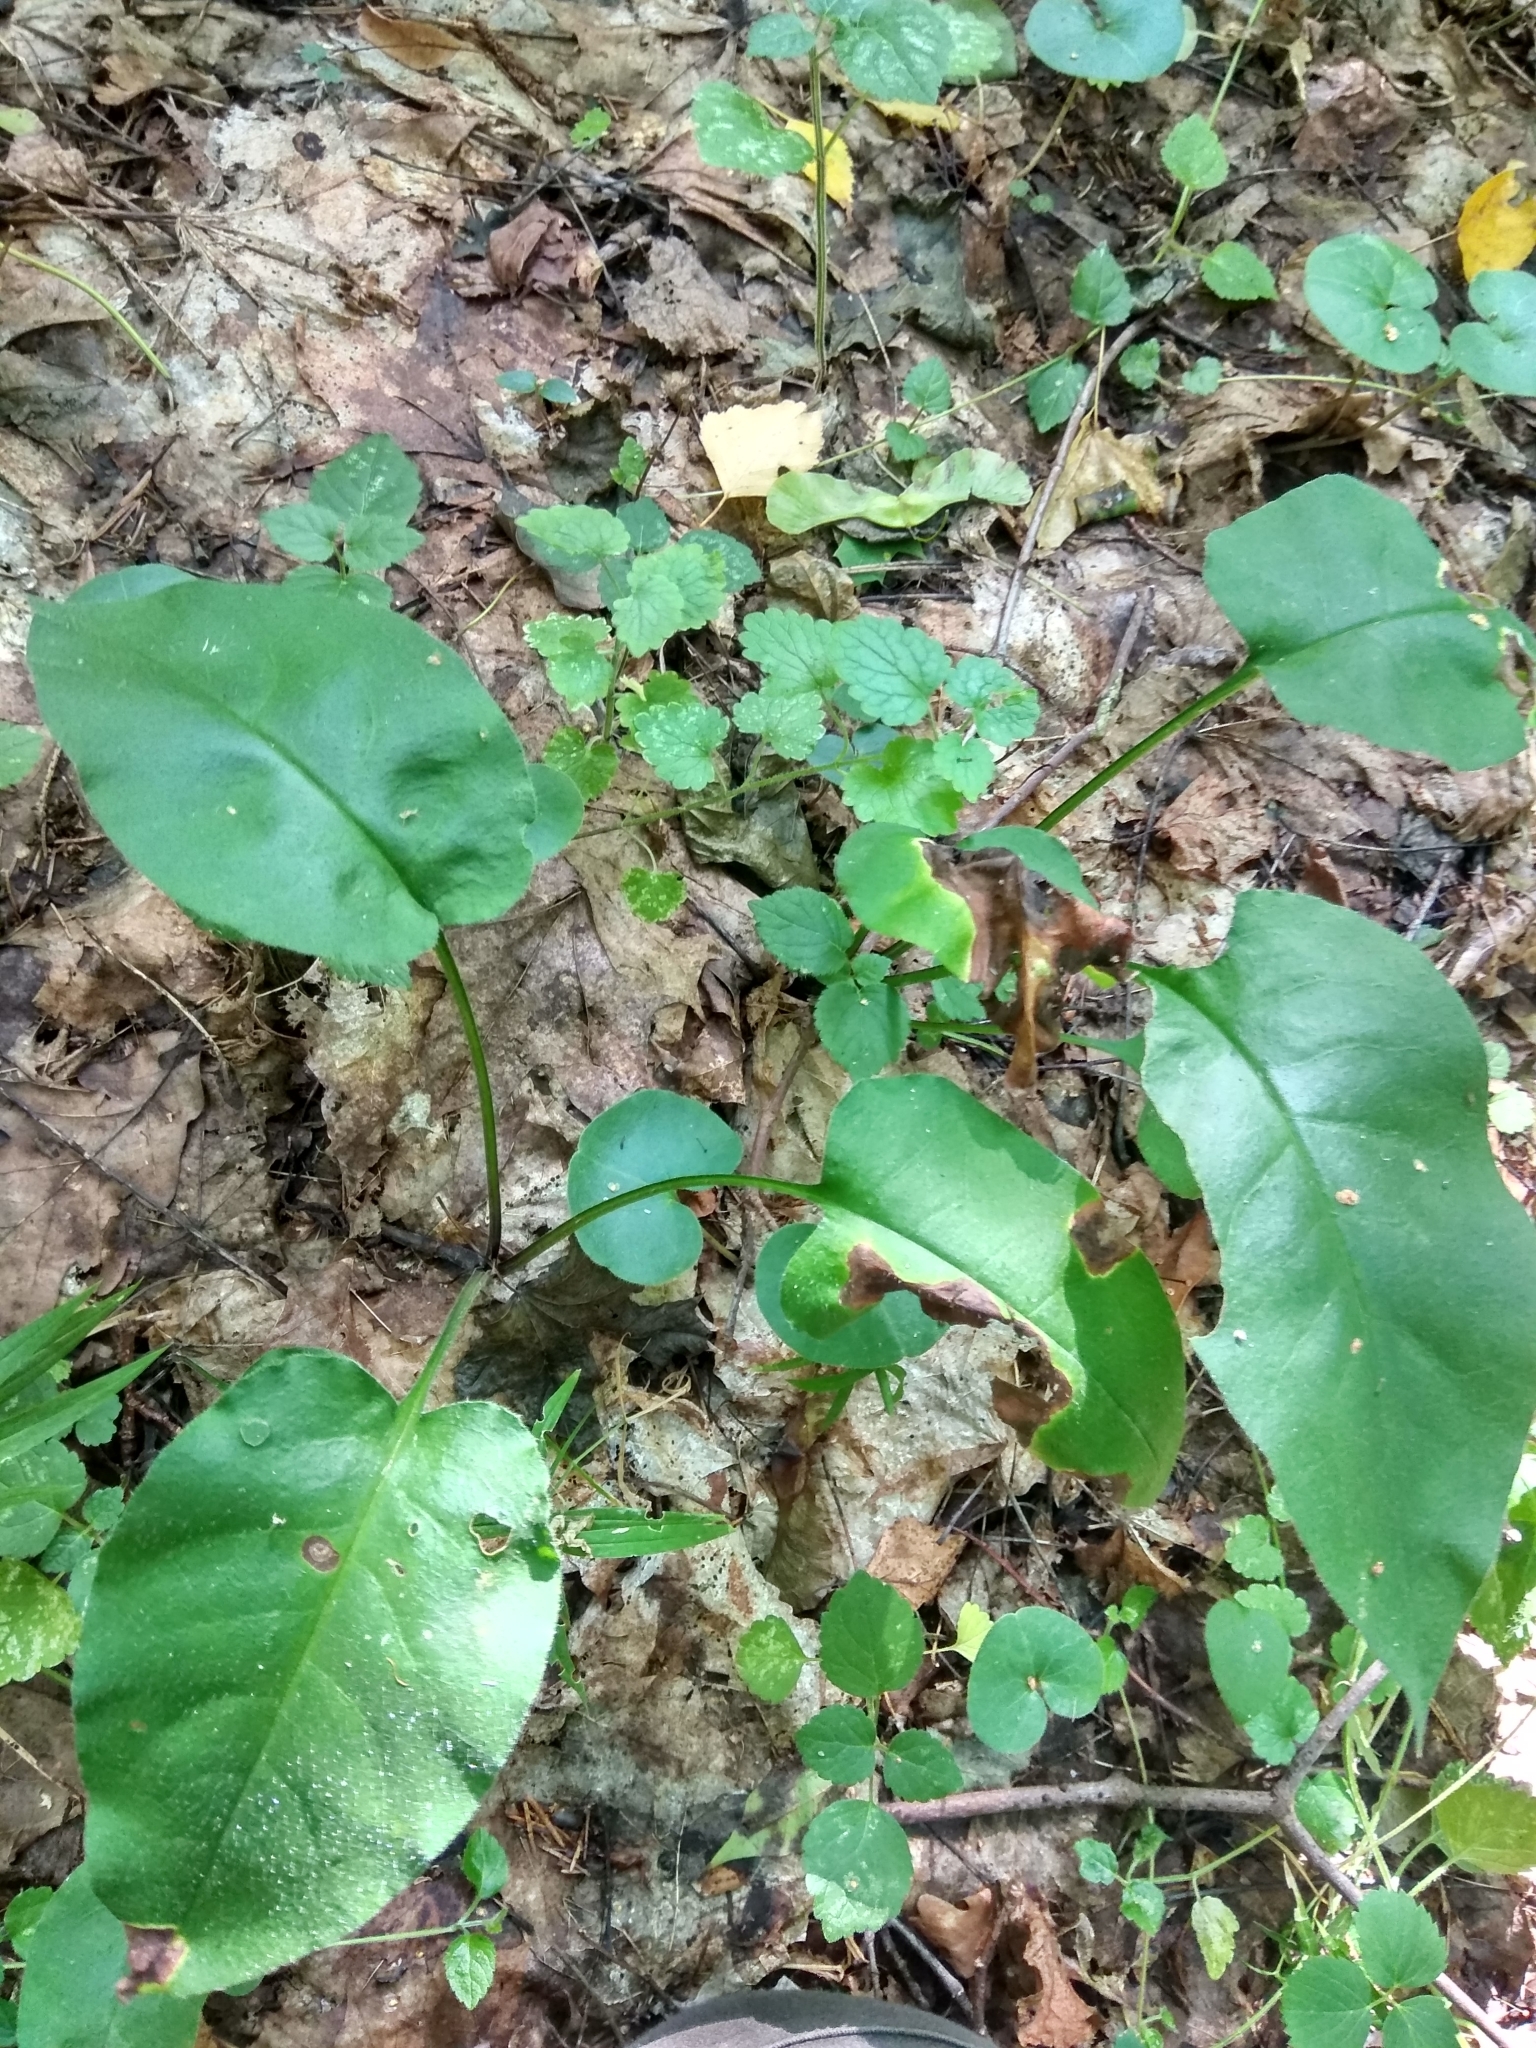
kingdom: Plantae
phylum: Tracheophyta
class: Magnoliopsida
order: Boraginales
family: Boraginaceae
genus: Pulmonaria
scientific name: Pulmonaria obscura
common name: Suffolk lungwort
